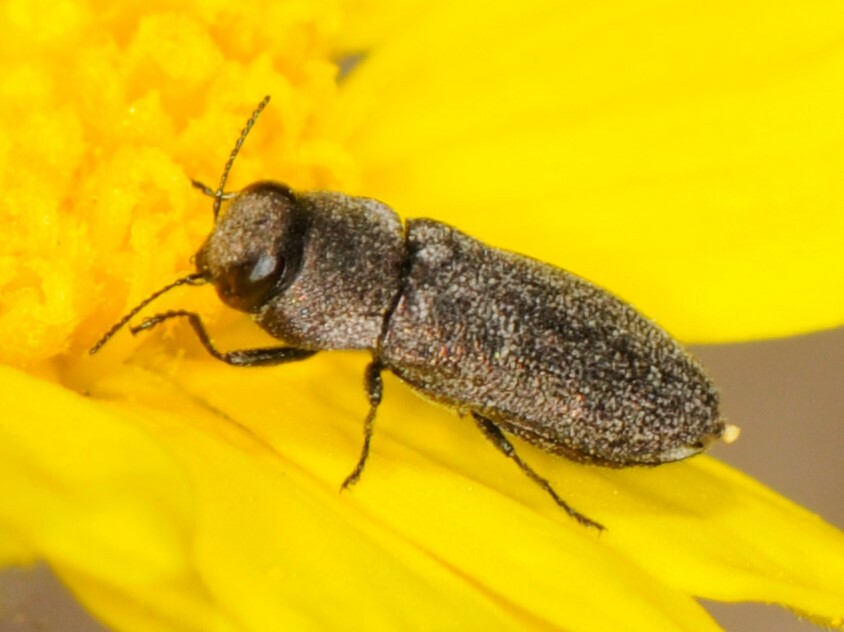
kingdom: Animalia
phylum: Arthropoda
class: Insecta
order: Coleoptera
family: Buprestidae
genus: Anthaxia
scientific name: Anthaxia
